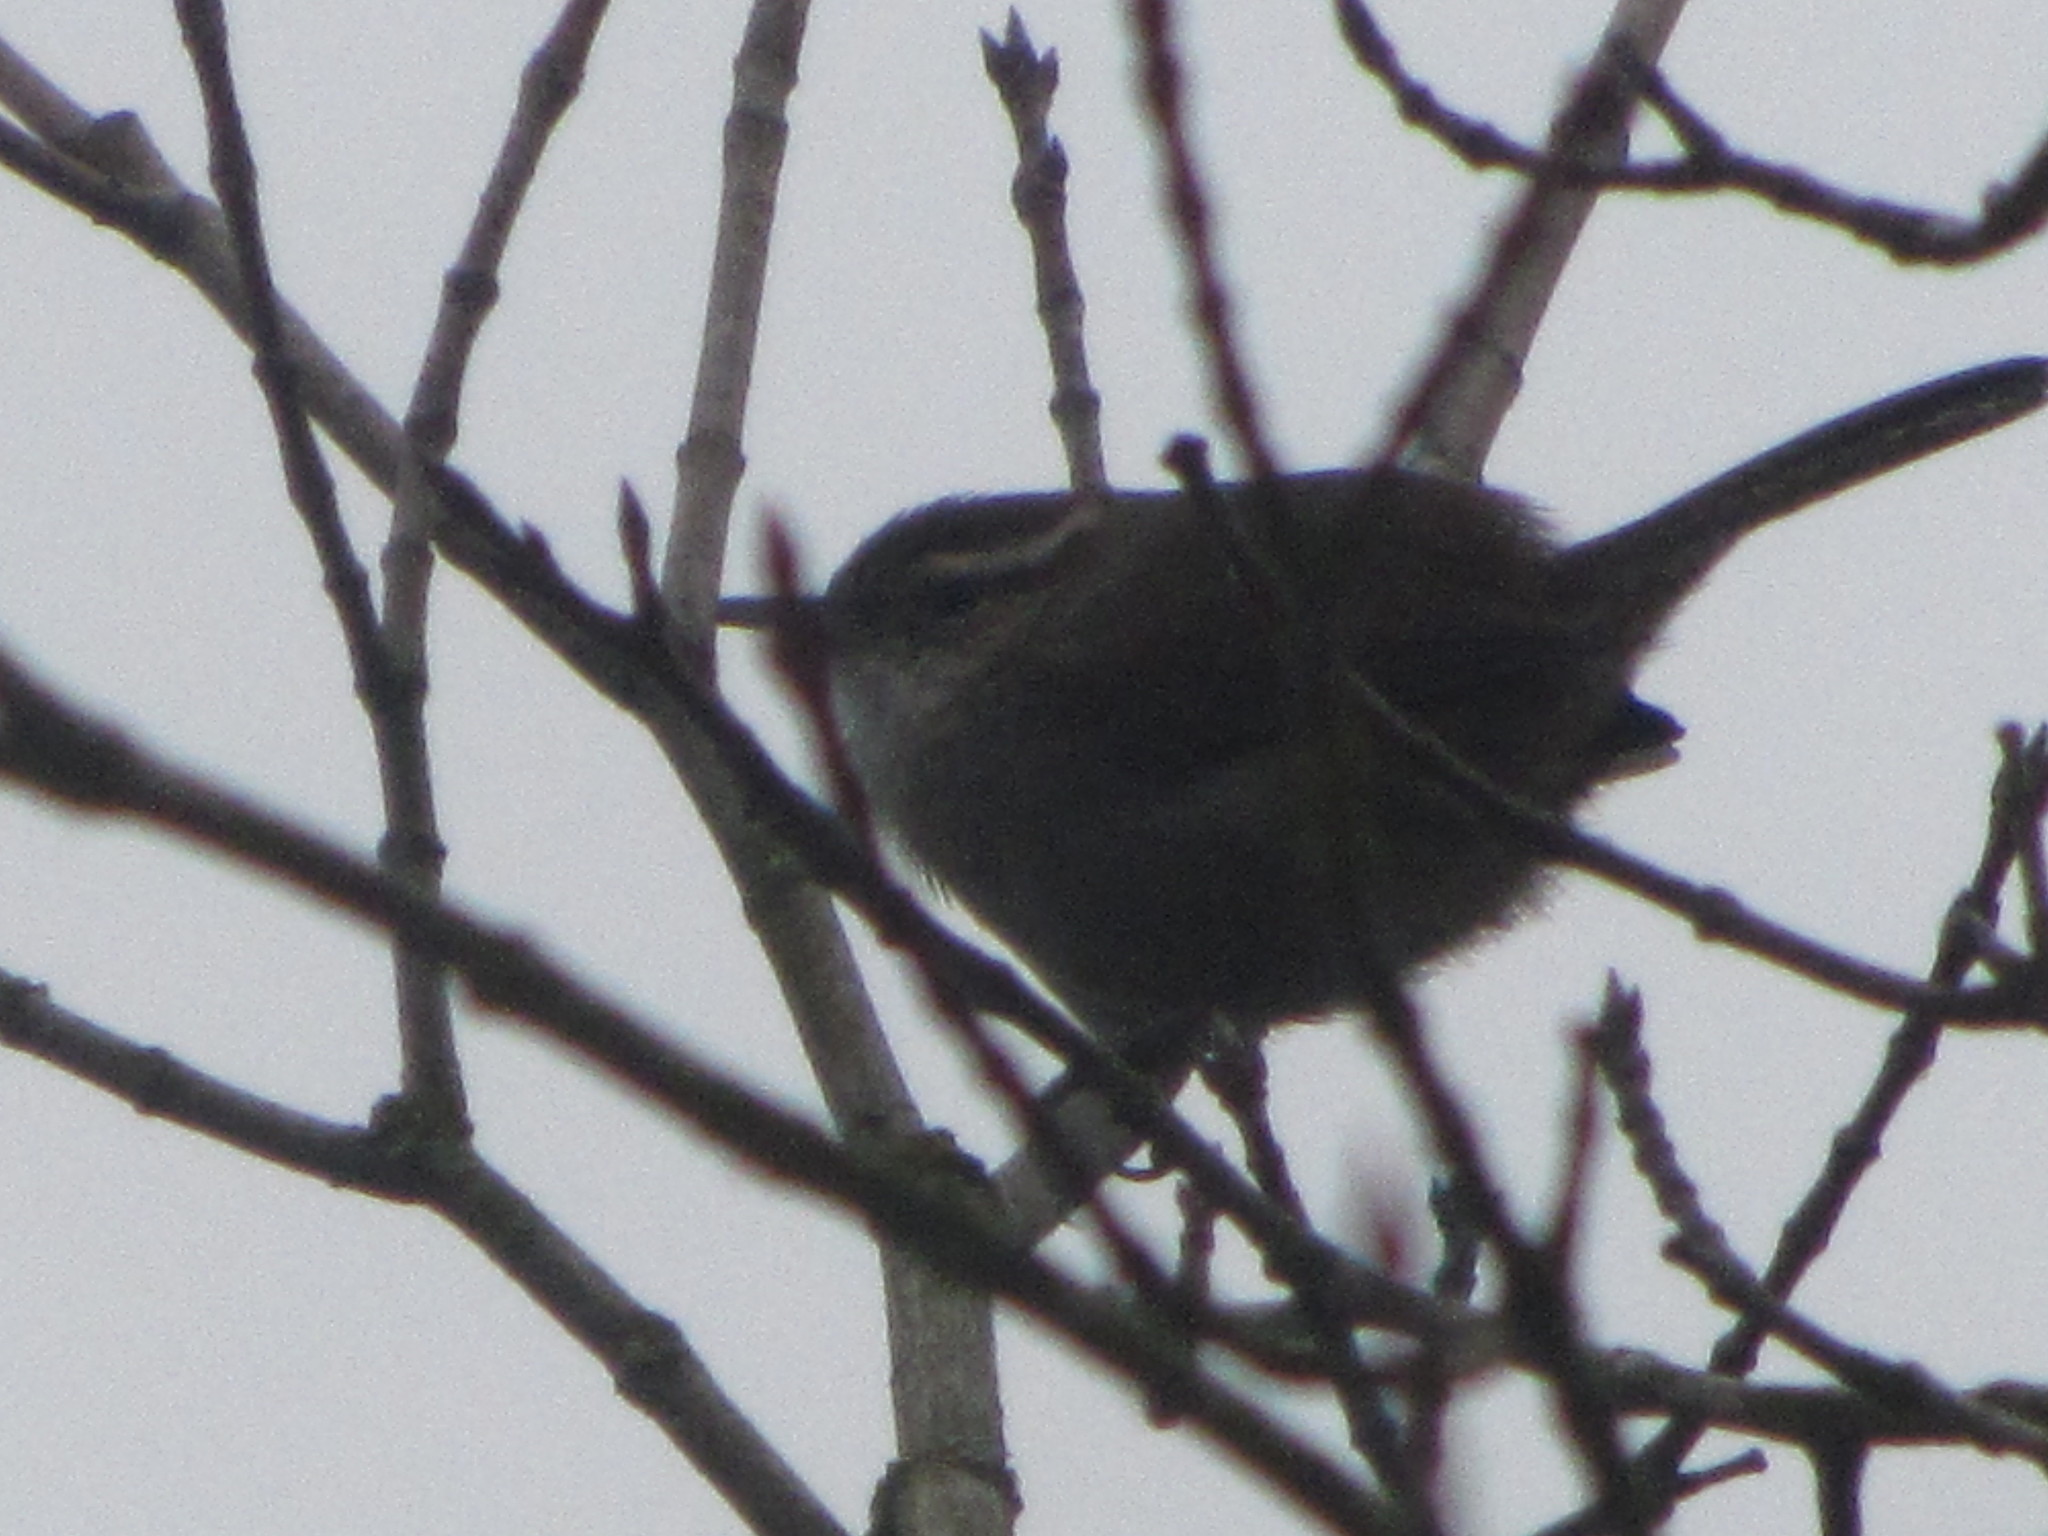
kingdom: Animalia
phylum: Chordata
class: Aves
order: Passeriformes
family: Troglodytidae
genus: Thryomanes
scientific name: Thryomanes bewickii
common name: Bewick's wren
